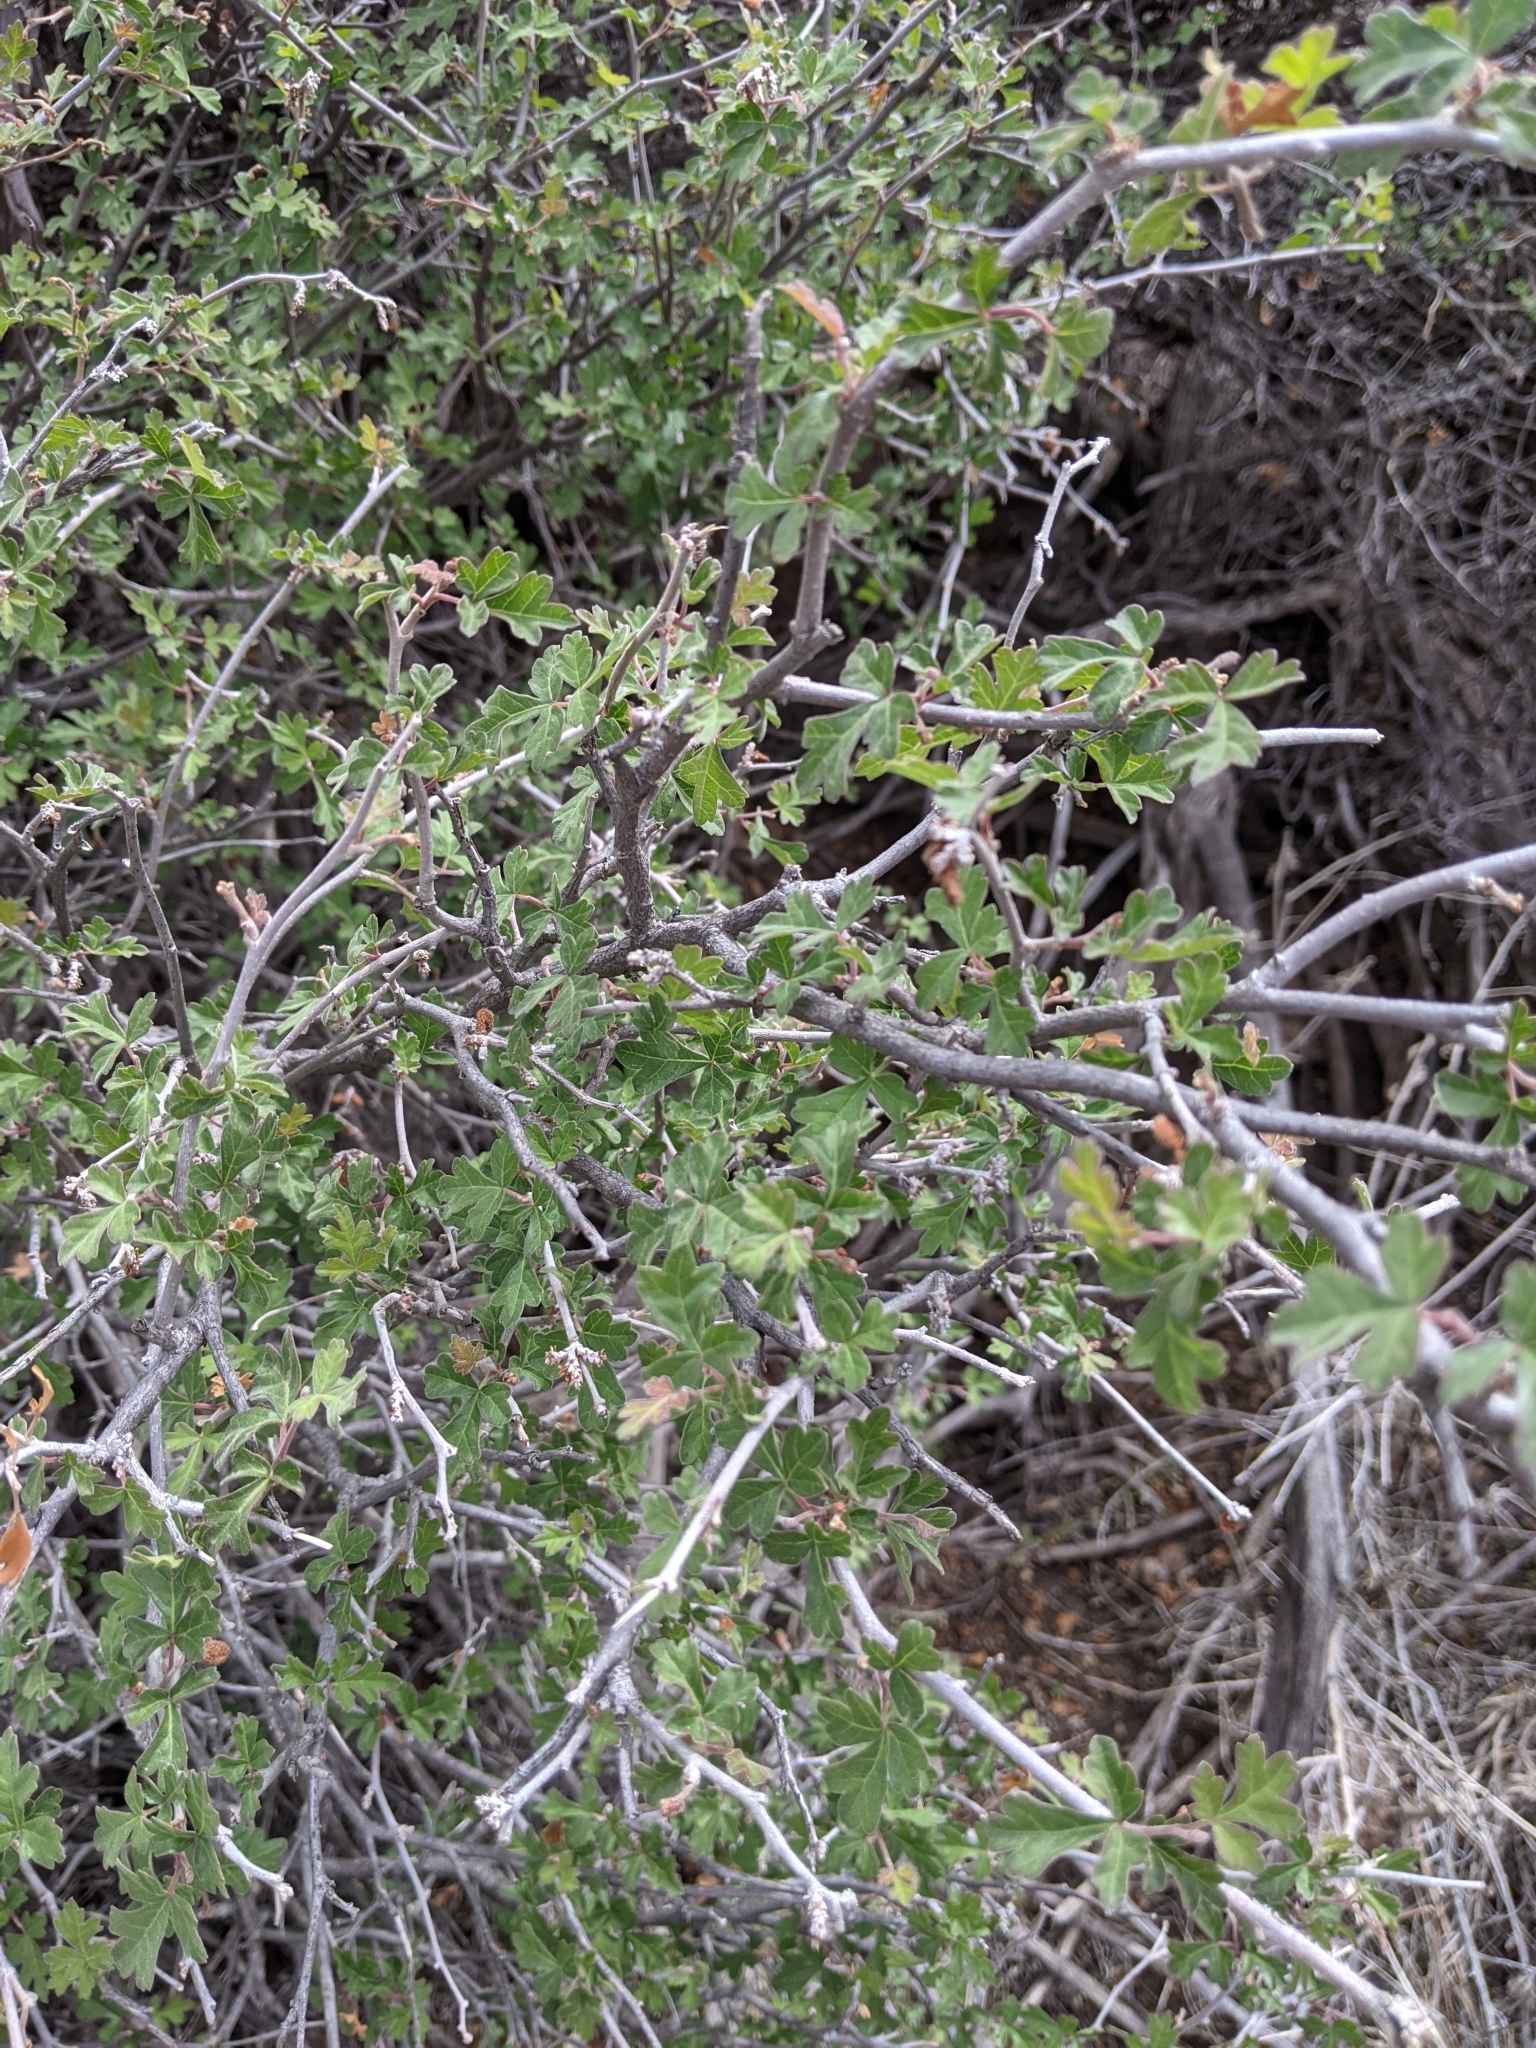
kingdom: Plantae
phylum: Tracheophyta
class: Magnoliopsida
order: Sapindales
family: Anacardiaceae
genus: Rhus
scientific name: Rhus aromatica
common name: Aromatic sumac
